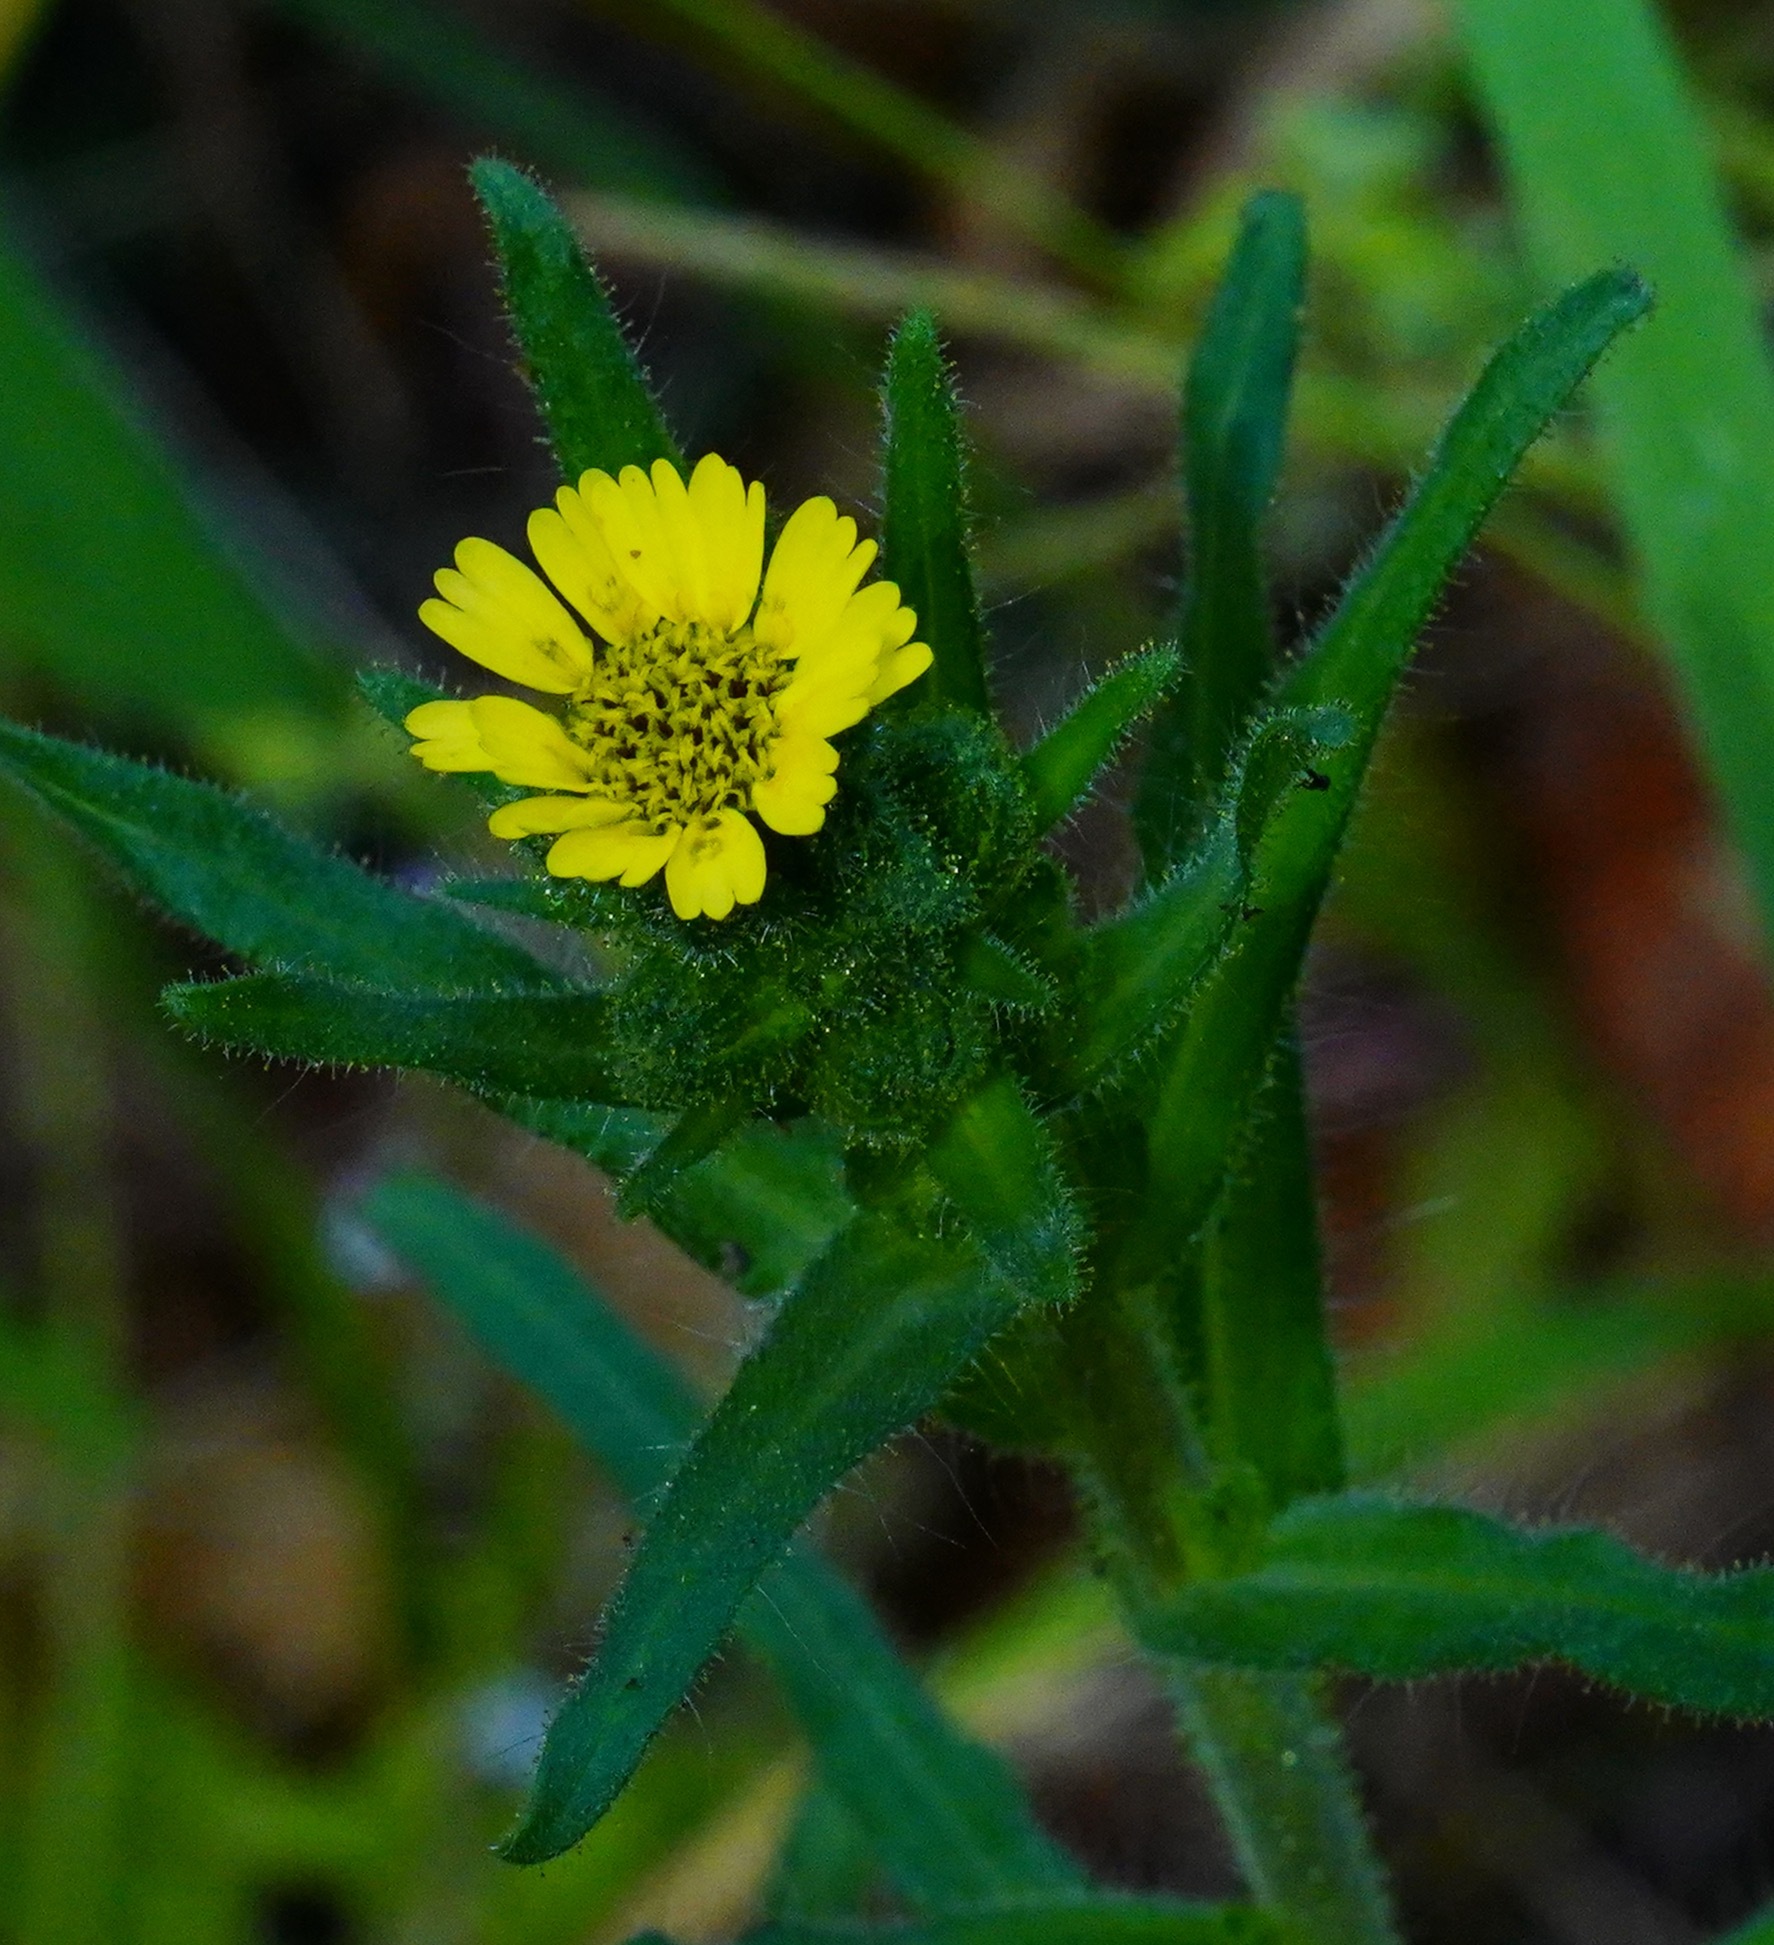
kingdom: Plantae
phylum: Tracheophyta
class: Magnoliopsida
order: Asterales
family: Asteraceae
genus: Madia
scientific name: Madia sativa
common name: Coast tarweed
